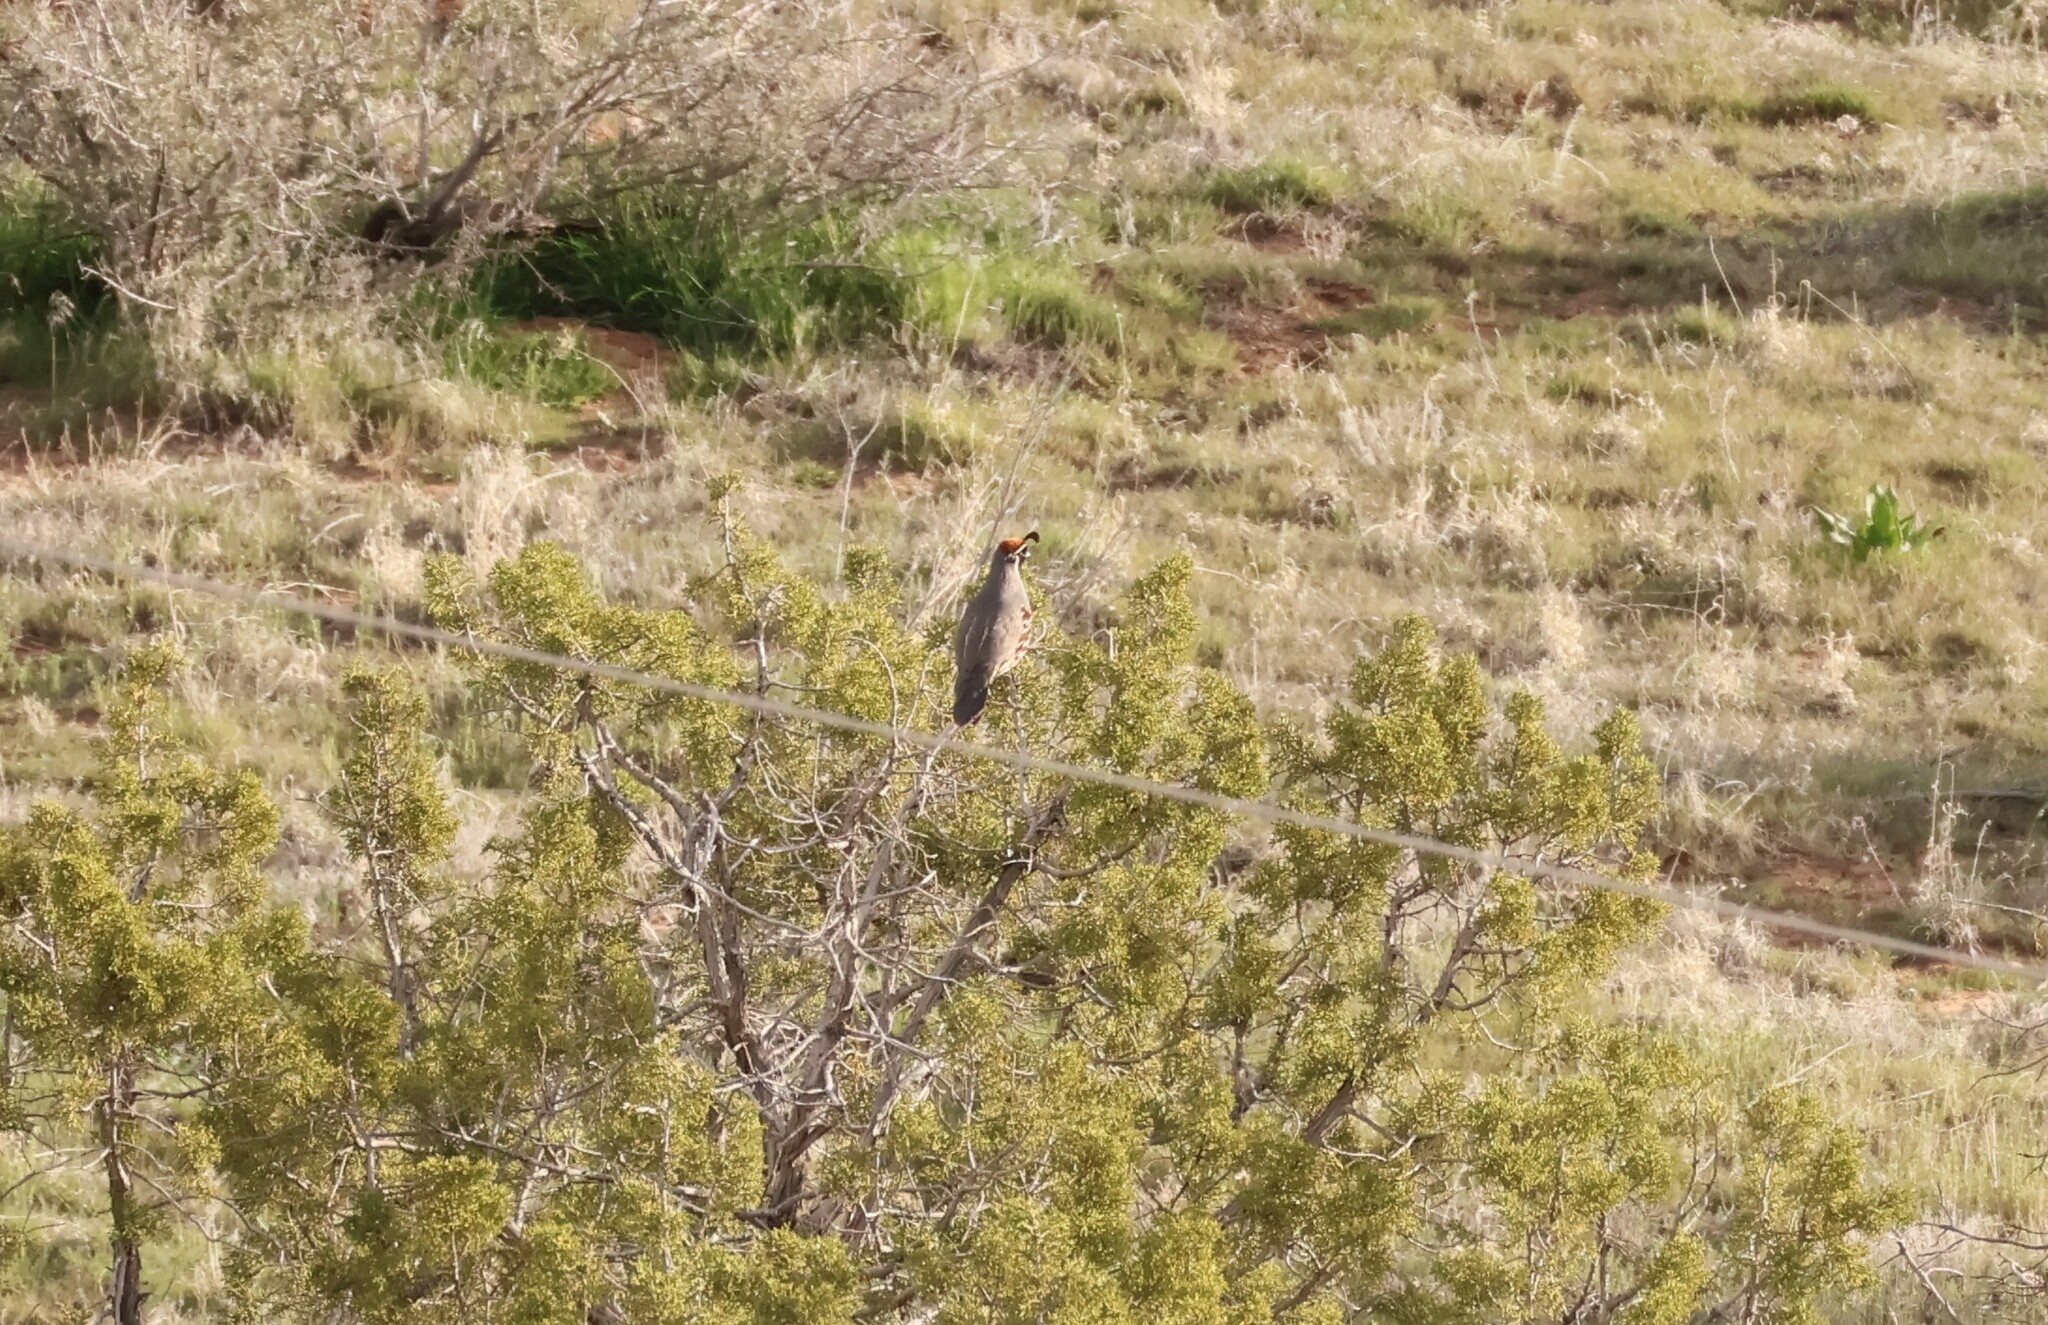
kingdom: Animalia
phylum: Chordata
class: Aves
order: Galliformes
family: Odontophoridae
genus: Callipepla
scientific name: Callipepla gambelii
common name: Gambel's quail
